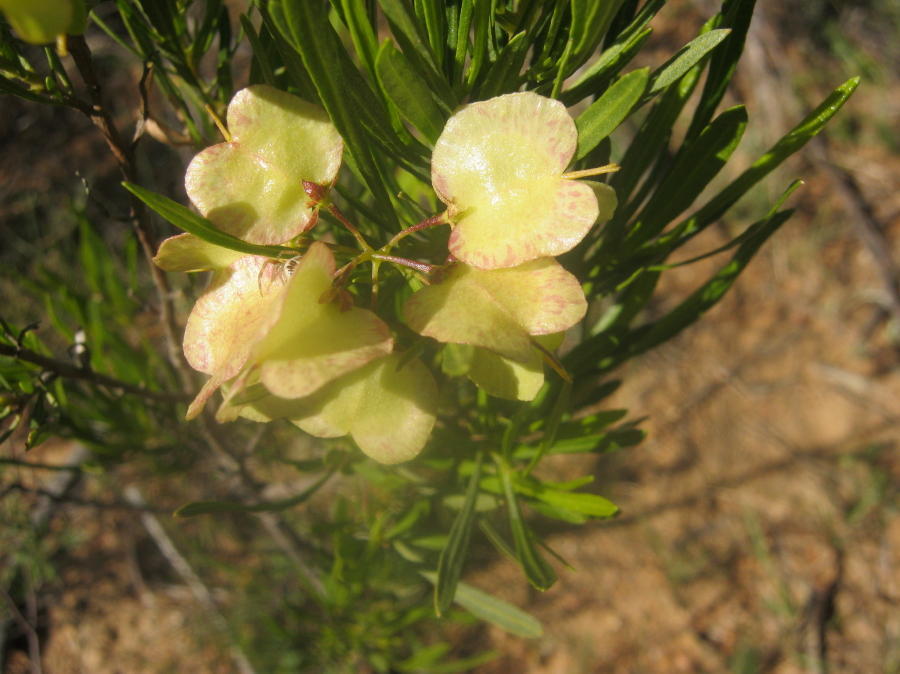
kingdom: Plantae
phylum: Tracheophyta
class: Magnoliopsida
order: Sapindales
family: Sapindaceae
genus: Dodonaea
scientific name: Dodonaea viscosa
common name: Hopbush
